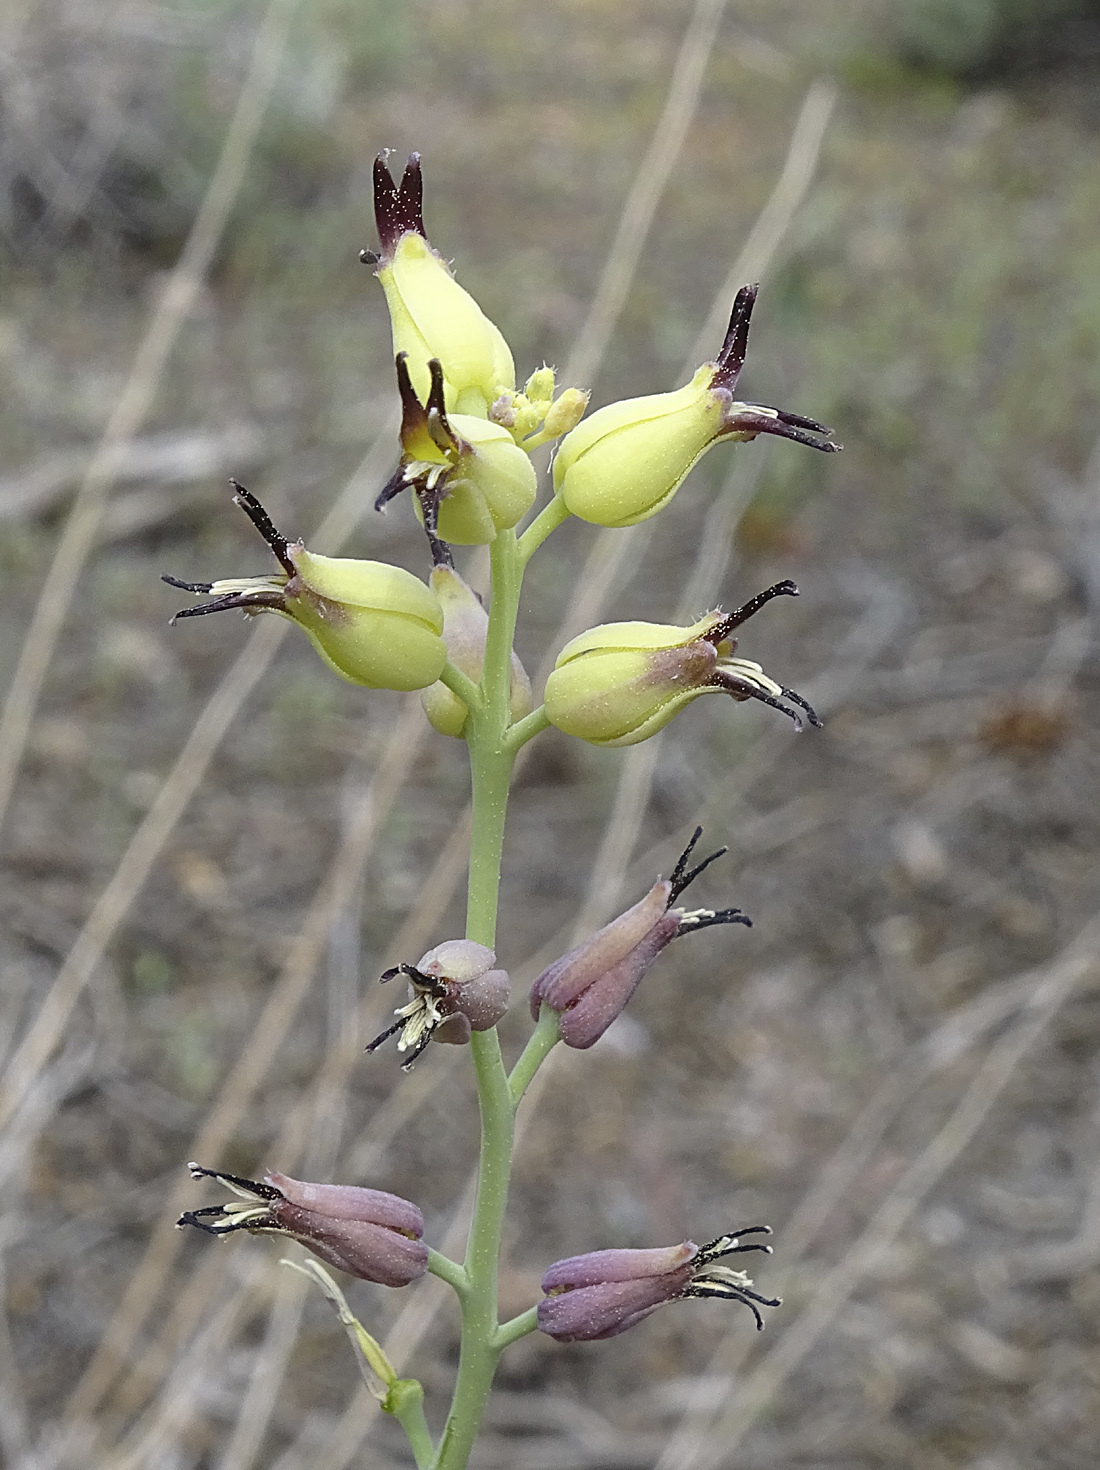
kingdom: Plantae
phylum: Tracheophyta
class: Magnoliopsida
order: Brassicales
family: Brassicaceae
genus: Streptanthus
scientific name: Streptanthus cordatus
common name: Heart-leaf jewel-flower
